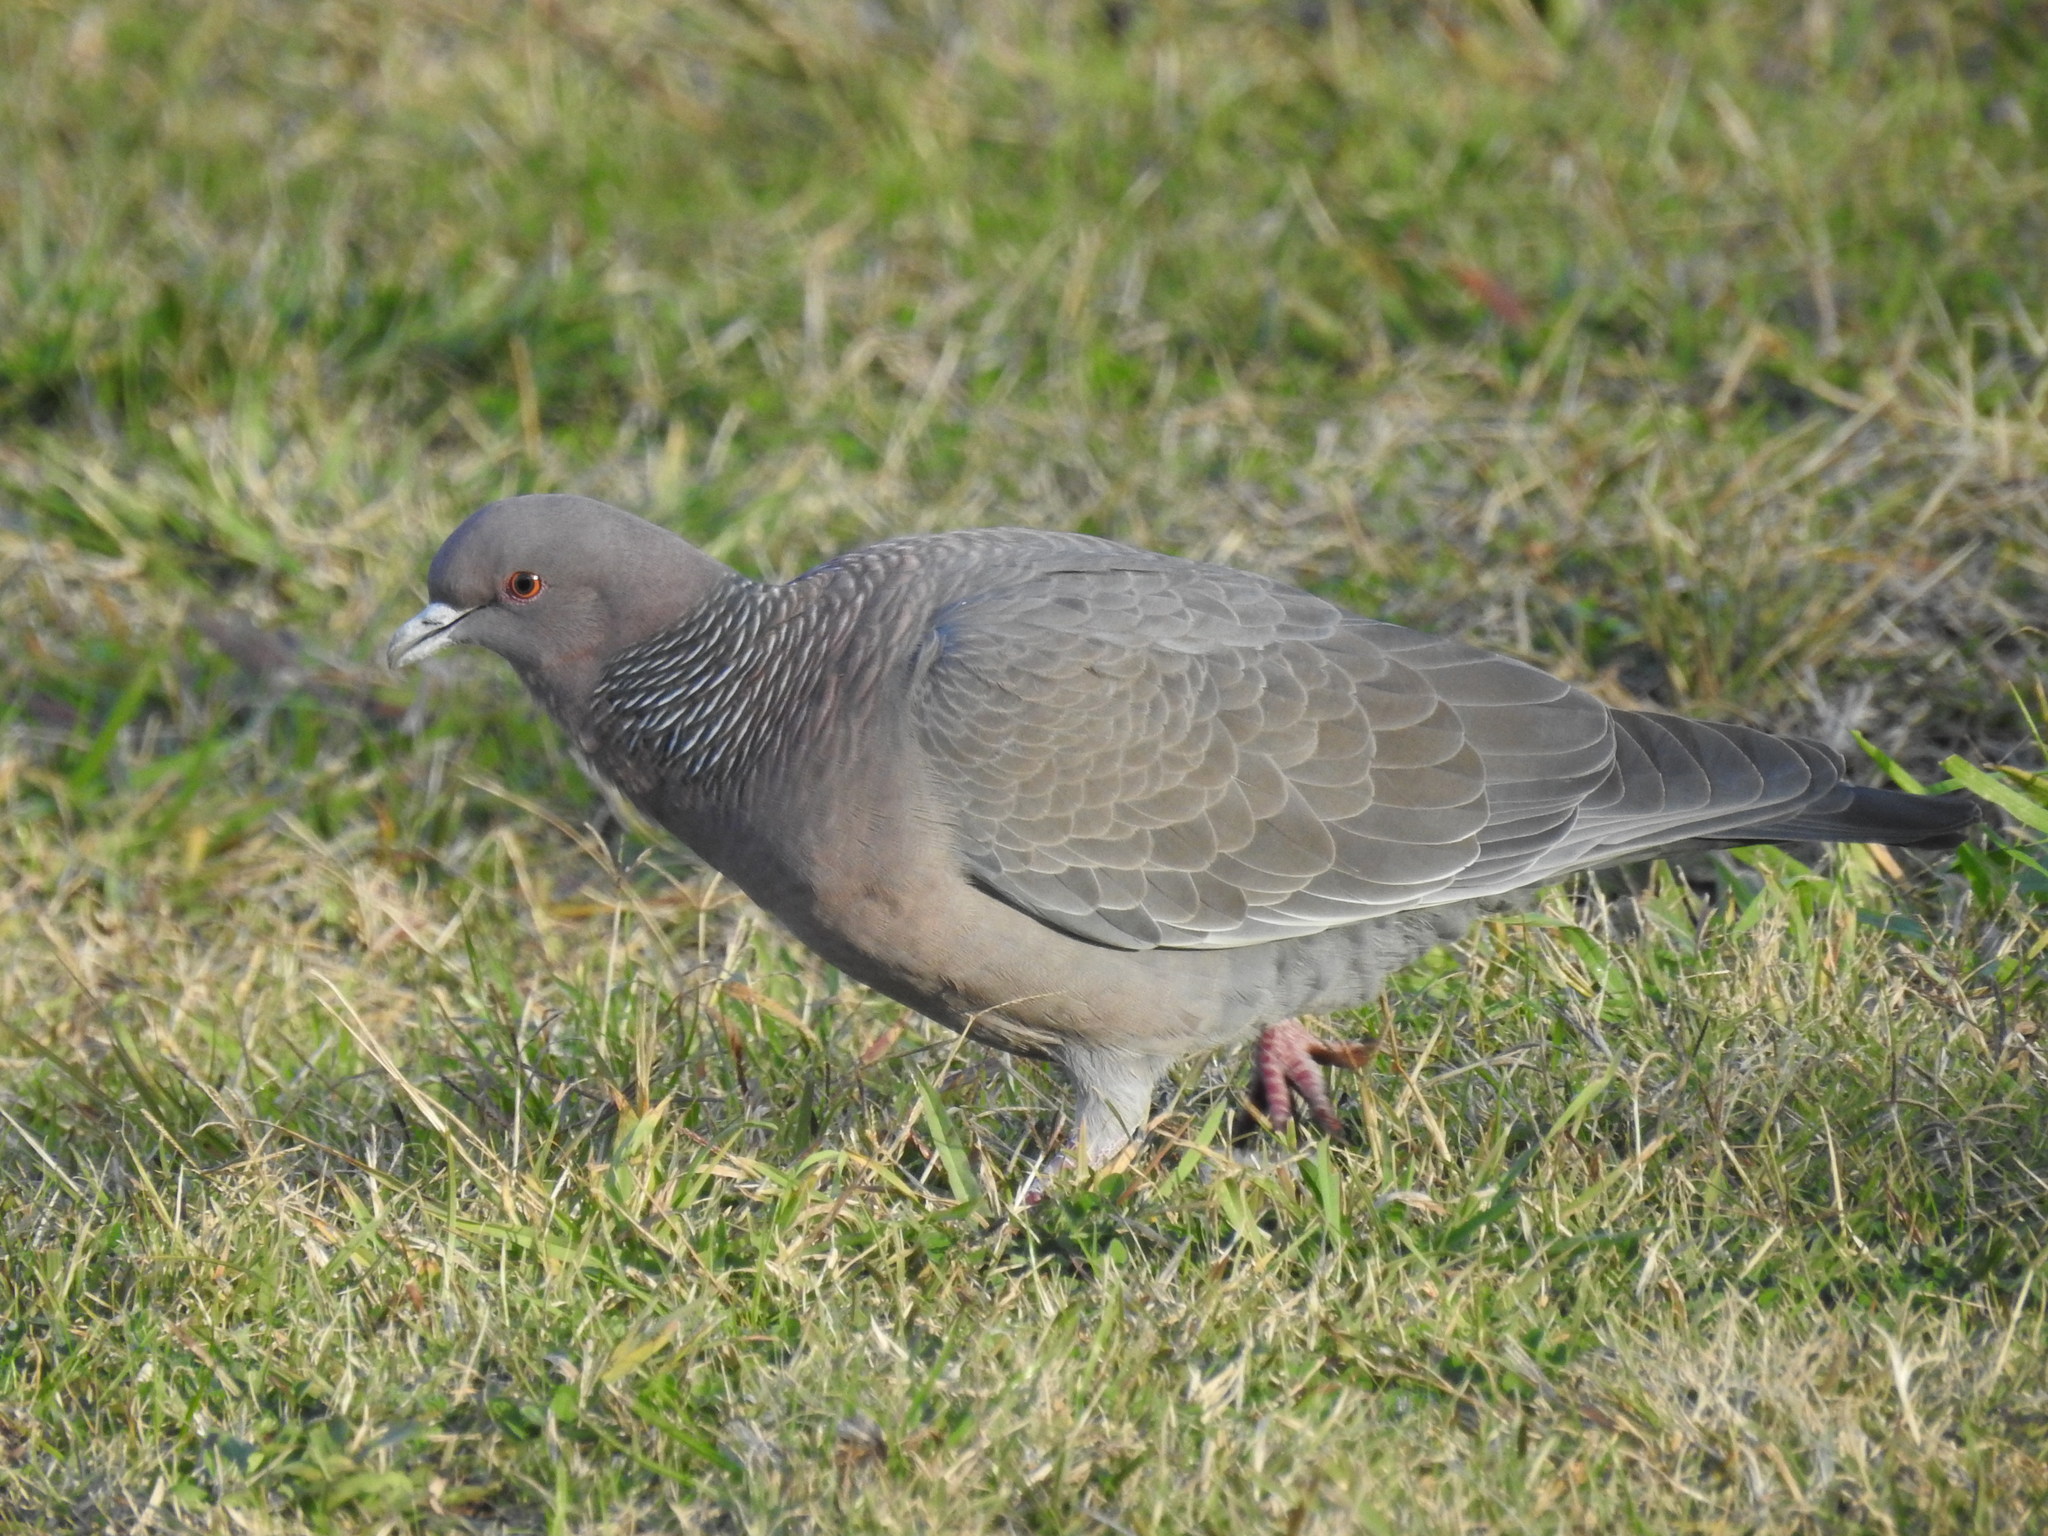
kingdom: Animalia
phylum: Chordata
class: Aves
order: Columbiformes
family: Columbidae
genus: Patagioenas
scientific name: Patagioenas picazuro
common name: Picazuro pigeon
